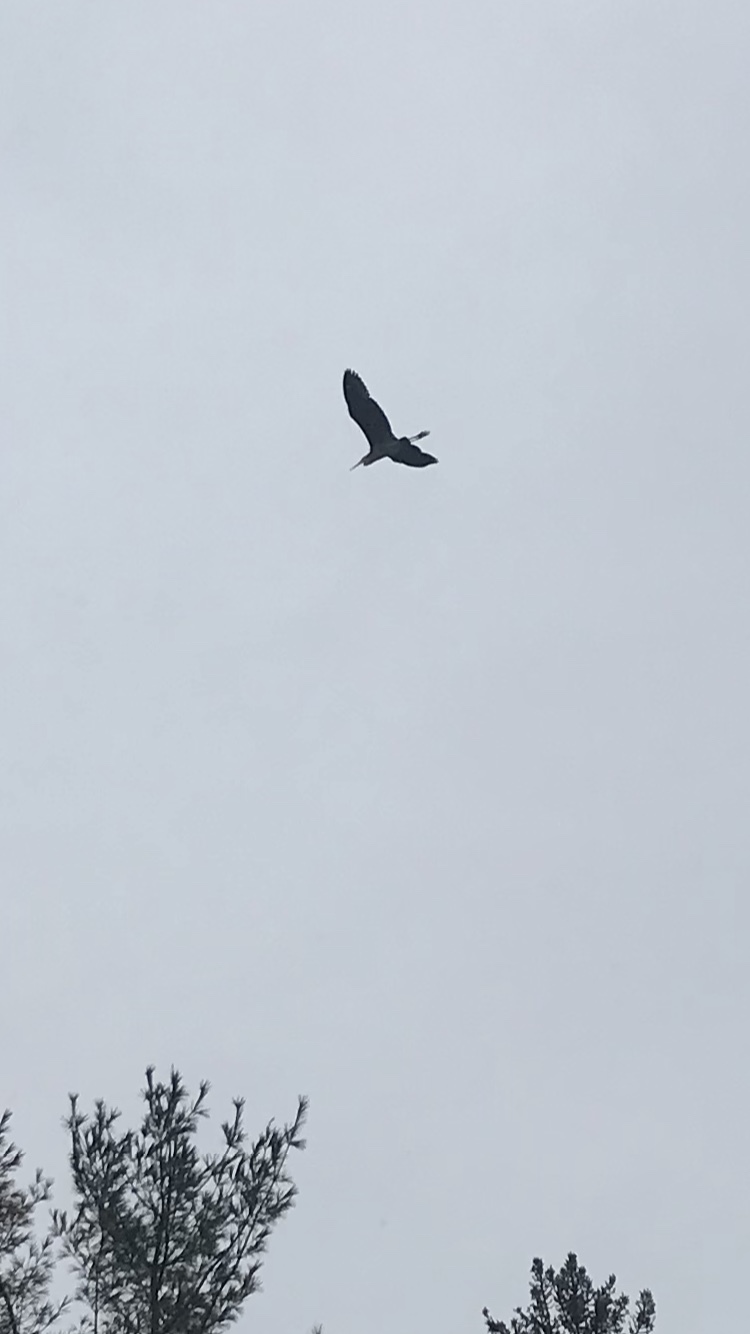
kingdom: Animalia
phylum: Chordata
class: Aves
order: Pelecaniformes
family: Ardeidae
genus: Ardea
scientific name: Ardea herodias
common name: Great blue heron
